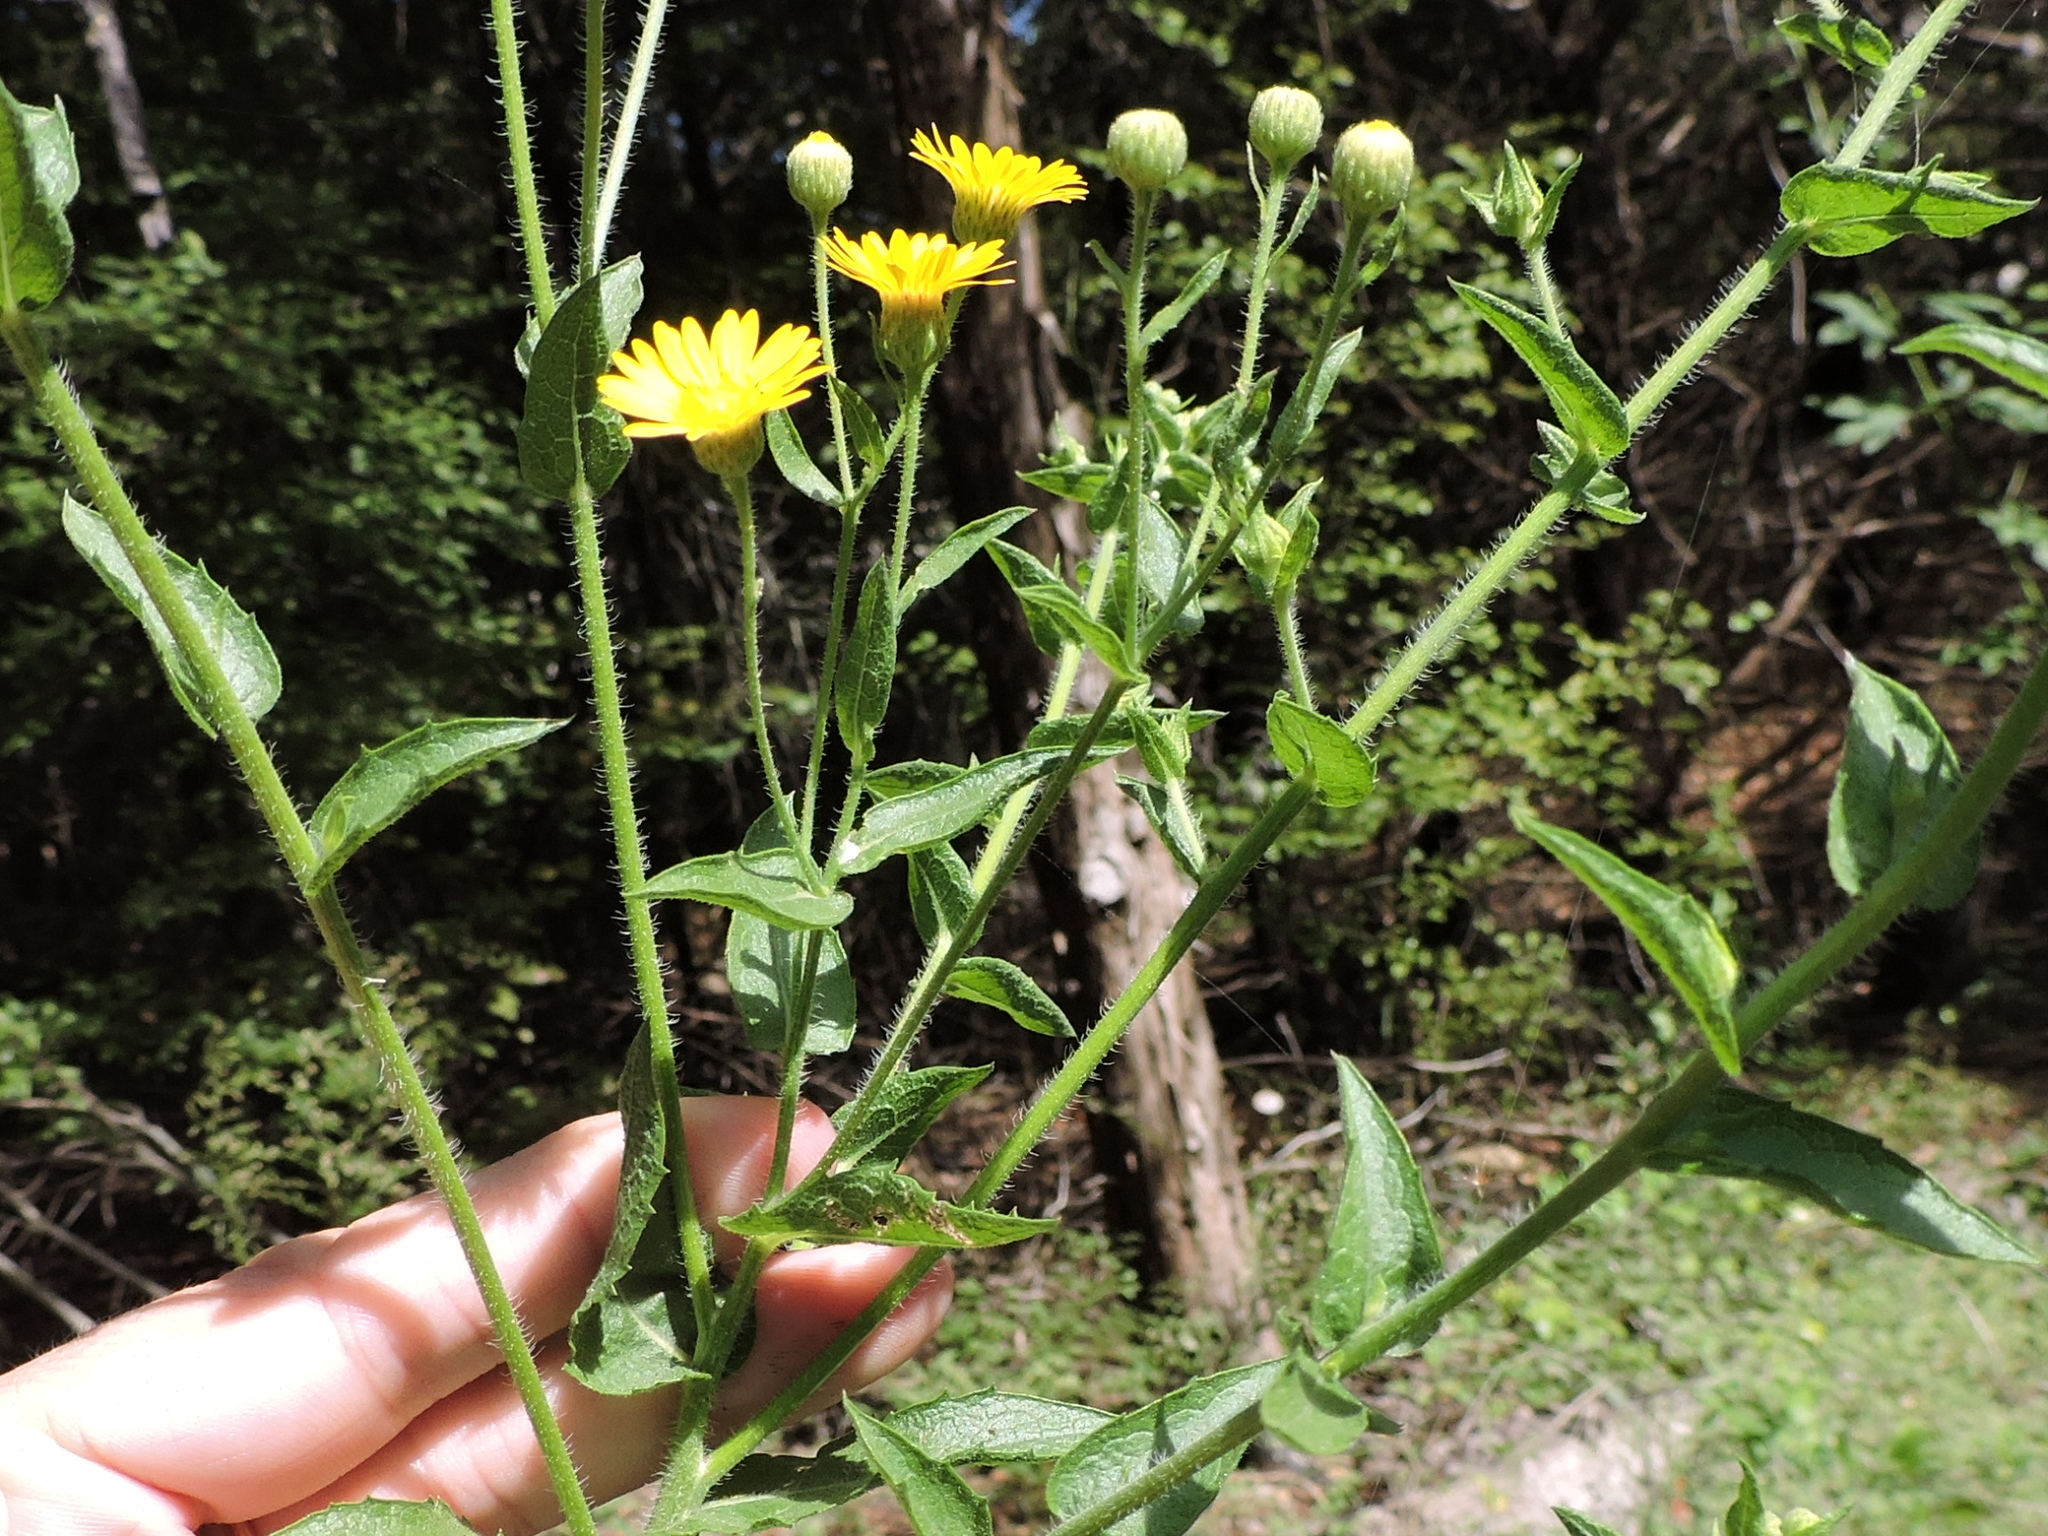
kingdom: Plantae
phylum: Tracheophyta
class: Magnoliopsida
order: Asterales
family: Asteraceae
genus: Heterotheca
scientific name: Heterotheca subaxillaris
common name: Camphorweed
